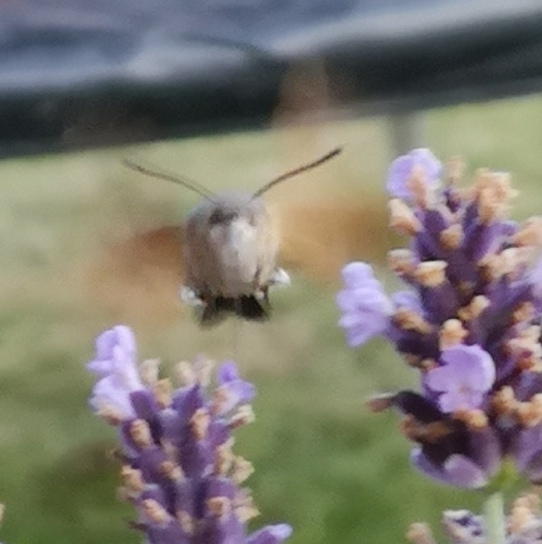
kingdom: Animalia
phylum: Arthropoda
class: Insecta
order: Lepidoptera
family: Sphingidae
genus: Macroglossum
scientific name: Macroglossum stellatarum
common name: Humming-bird hawk-moth
